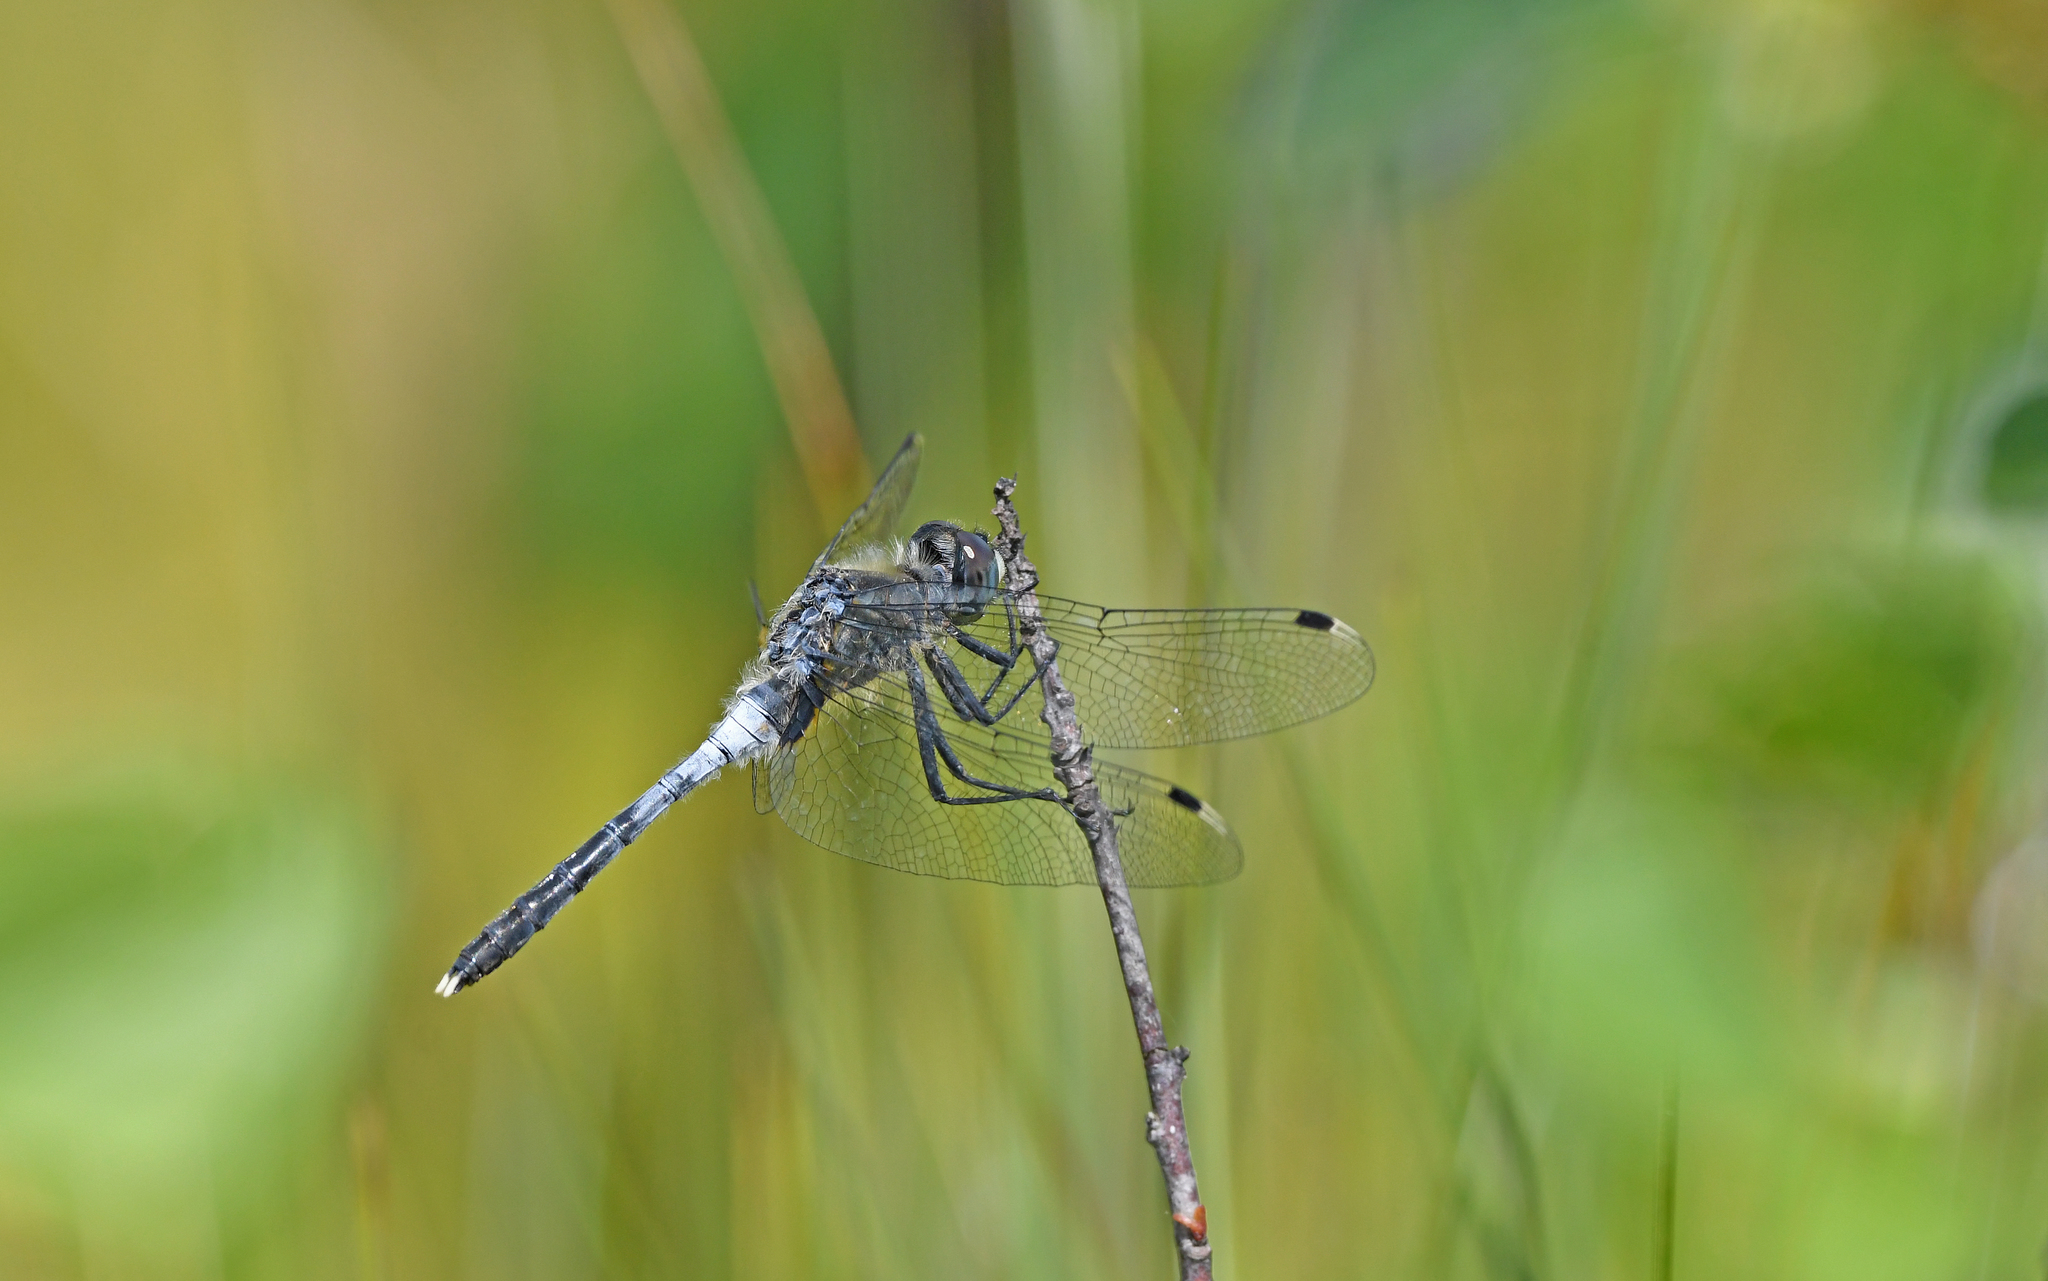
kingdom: Animalia
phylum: Arthropoda
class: Insecta
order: Odonata
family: Libellulidae
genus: Leucorrhinia
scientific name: Leucorrhinia albifrons
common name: Dark whiteface
